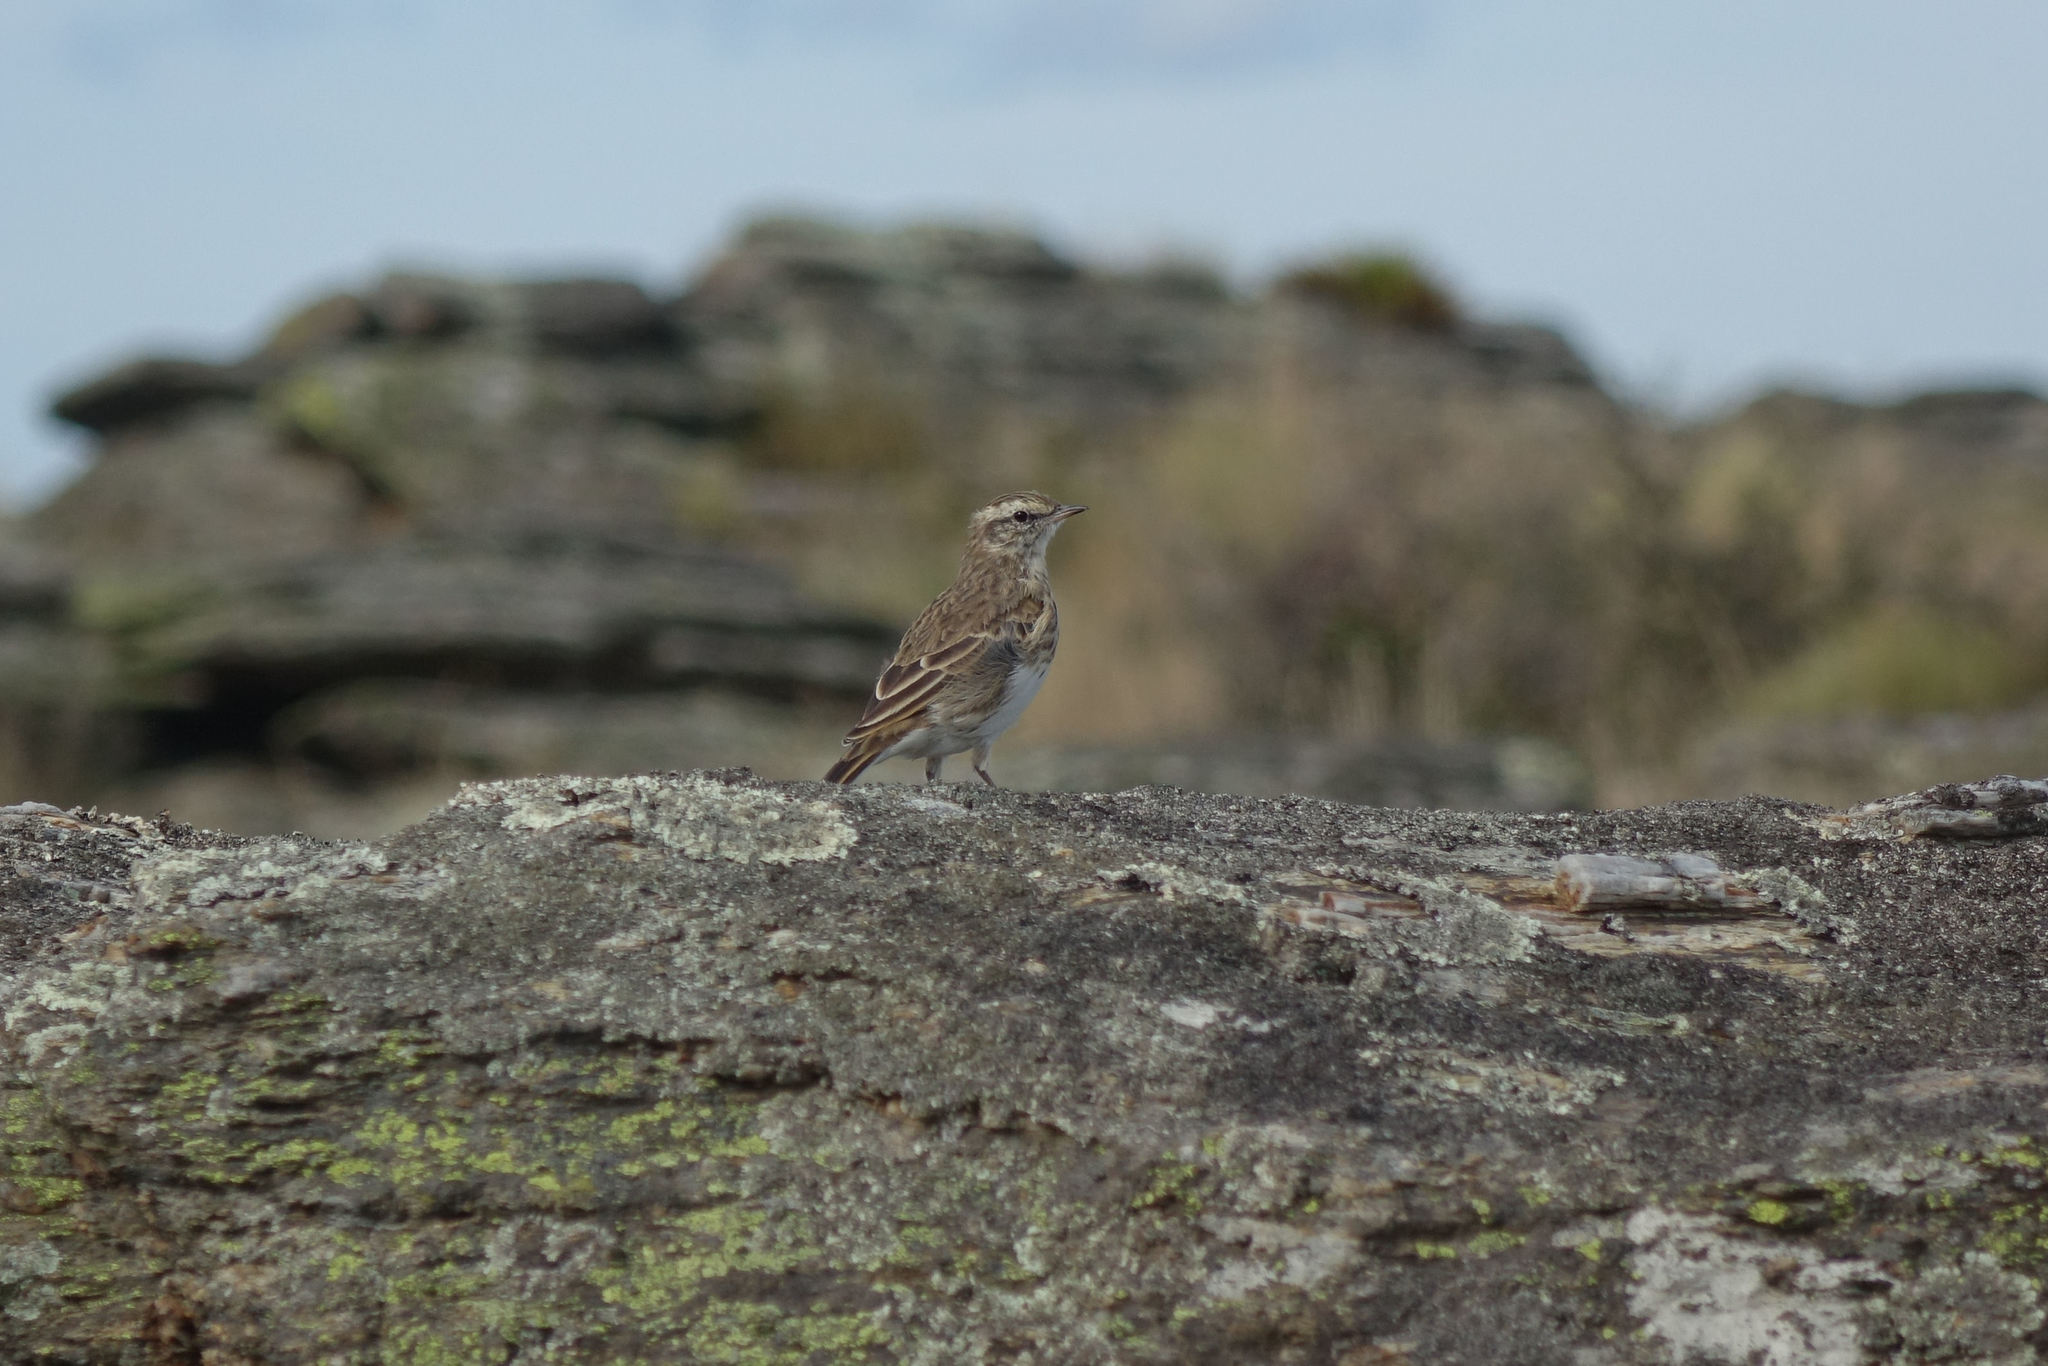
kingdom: Animalia
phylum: Chordata
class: Aves
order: Passeriformes
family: Motacillidae
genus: Anthus
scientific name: Anthus novaeseelandiae
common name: New zealand pipit
